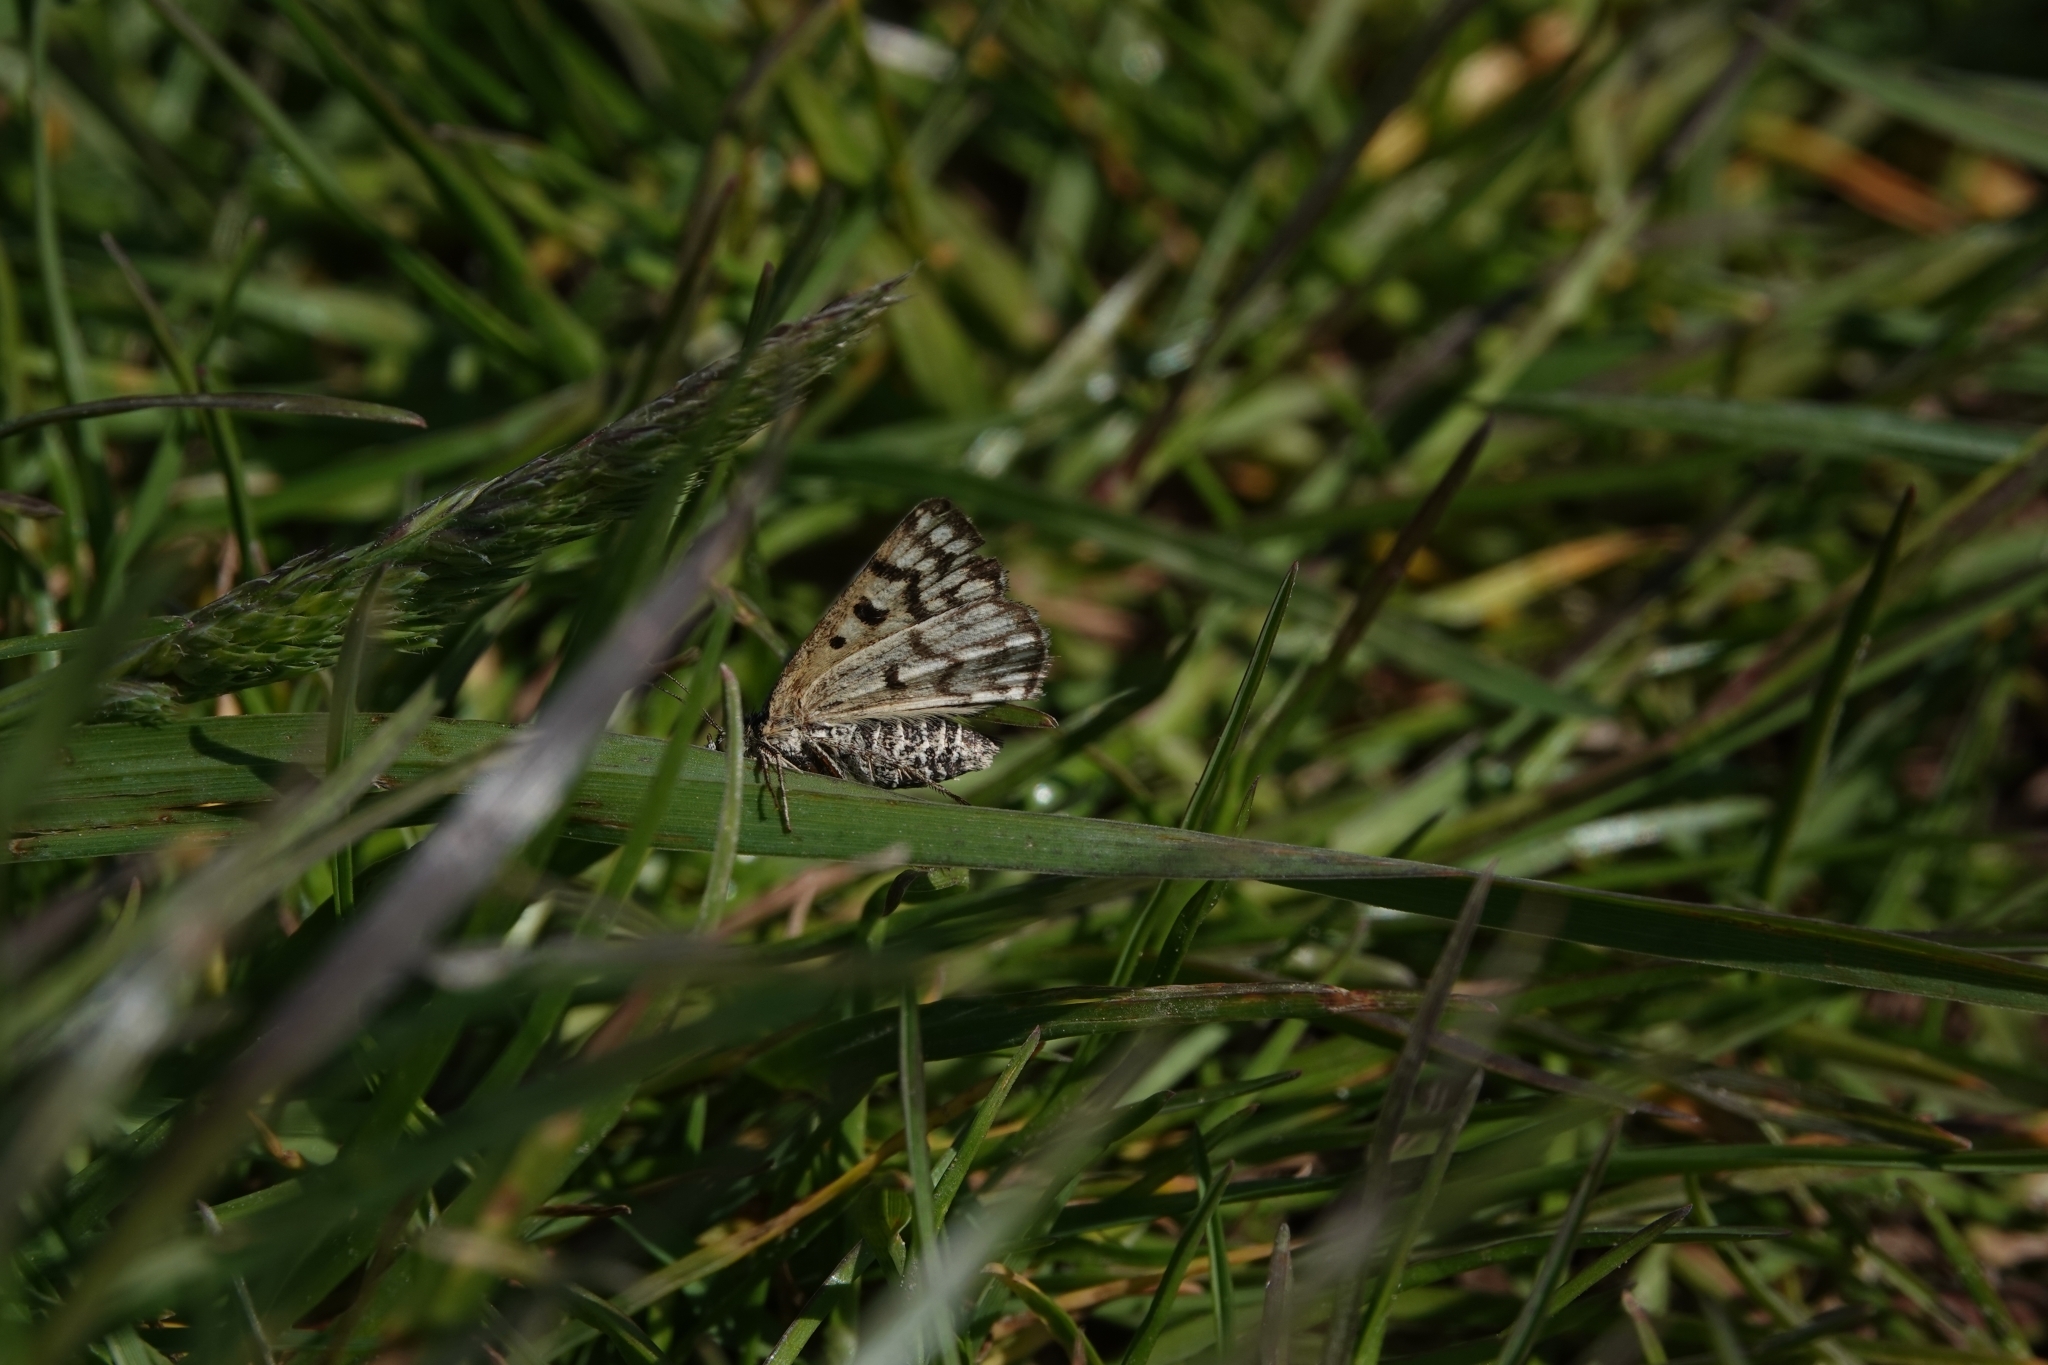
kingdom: Animalia
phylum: Arthropoda
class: Insecta
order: Lepidoptera
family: Erebidae
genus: Callistege
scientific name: Callistege mi
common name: Mother shipton
